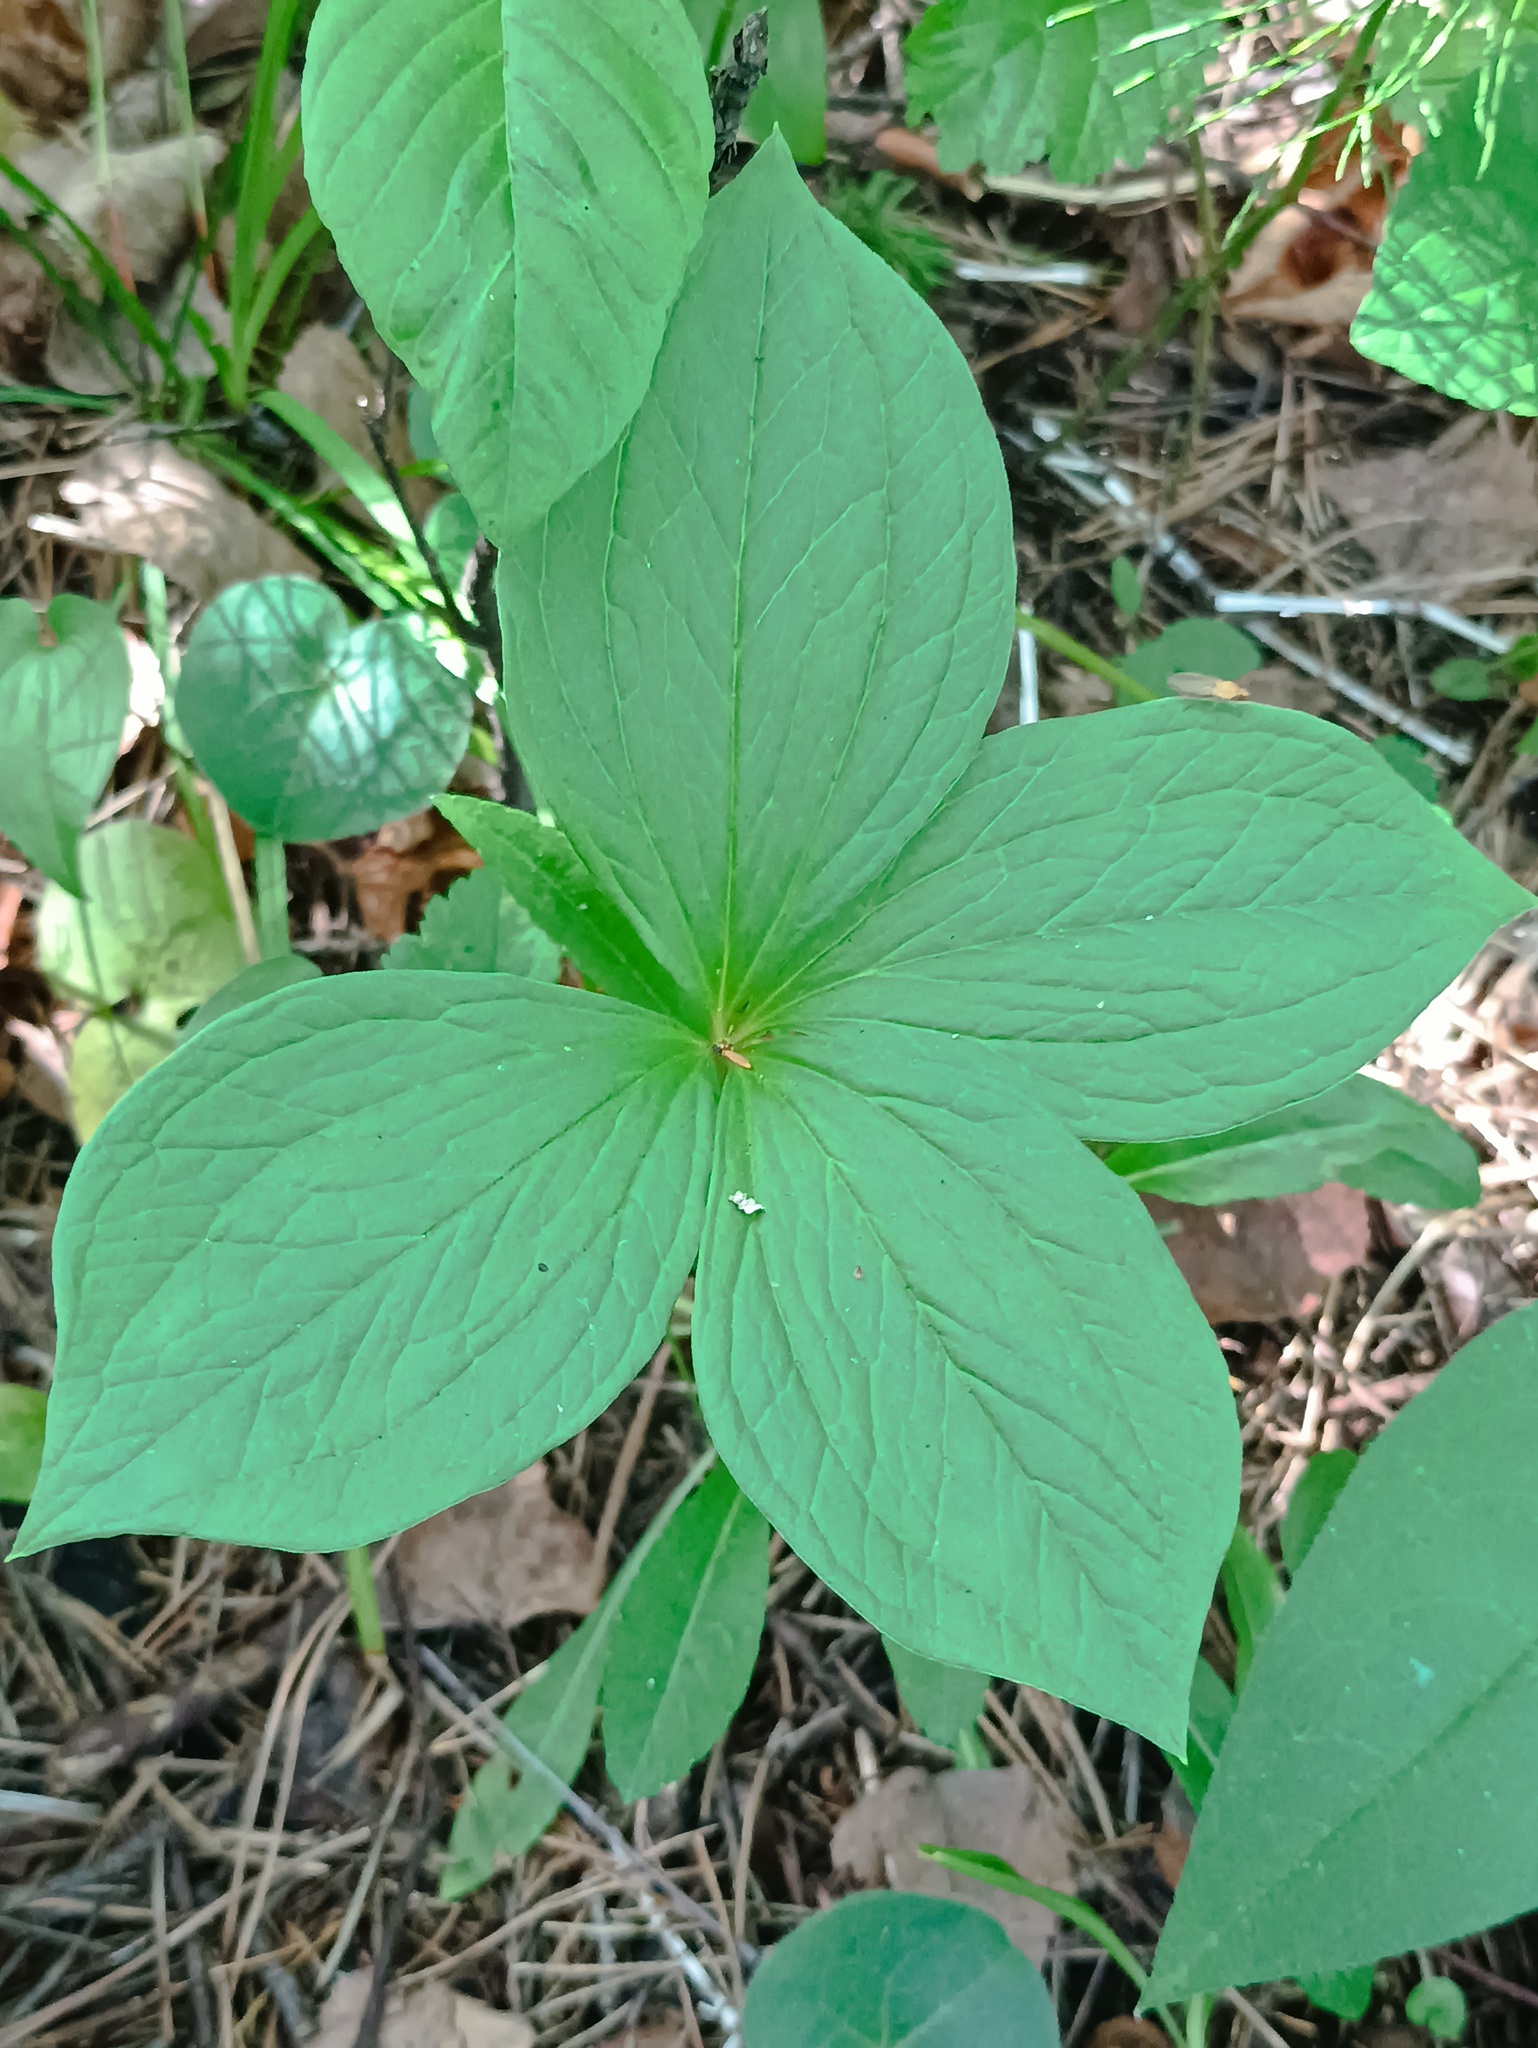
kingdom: Plantae
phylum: Tracheophyta
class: Liliopsida
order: Liliales
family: Melanthiaceae
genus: Paris
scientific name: Paris quadrifolia
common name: Herb-paris
